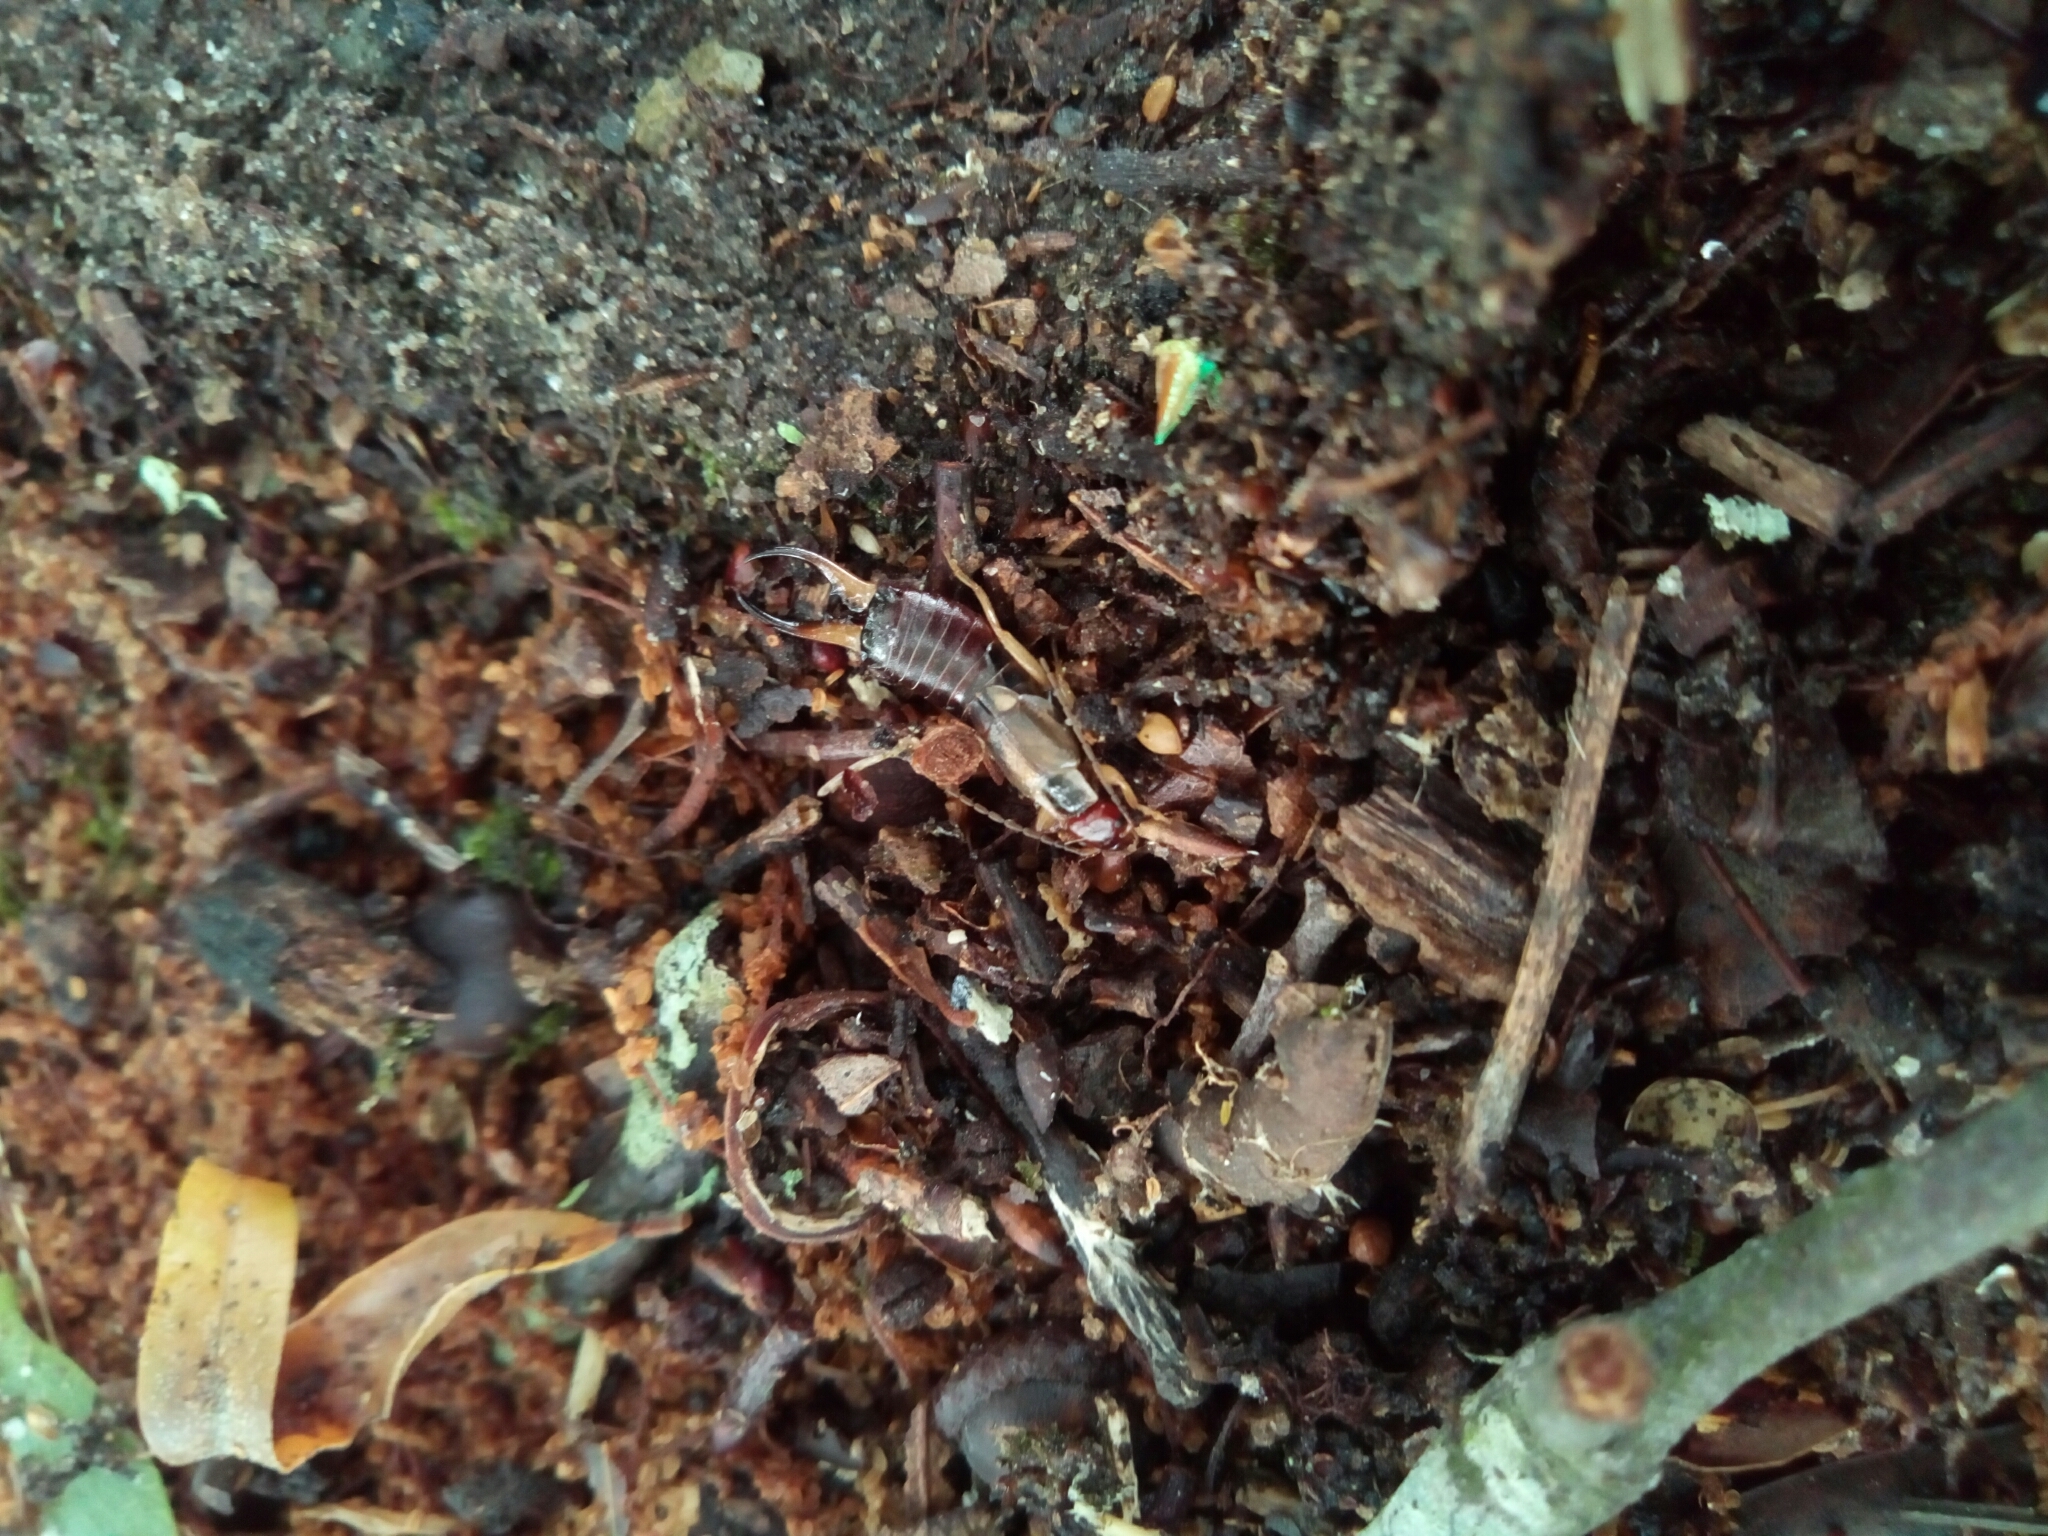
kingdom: Animalia
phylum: Arthropoda
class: Insecta
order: Dermaptera
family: Forficulidae
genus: Forficula
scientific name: Forficula
